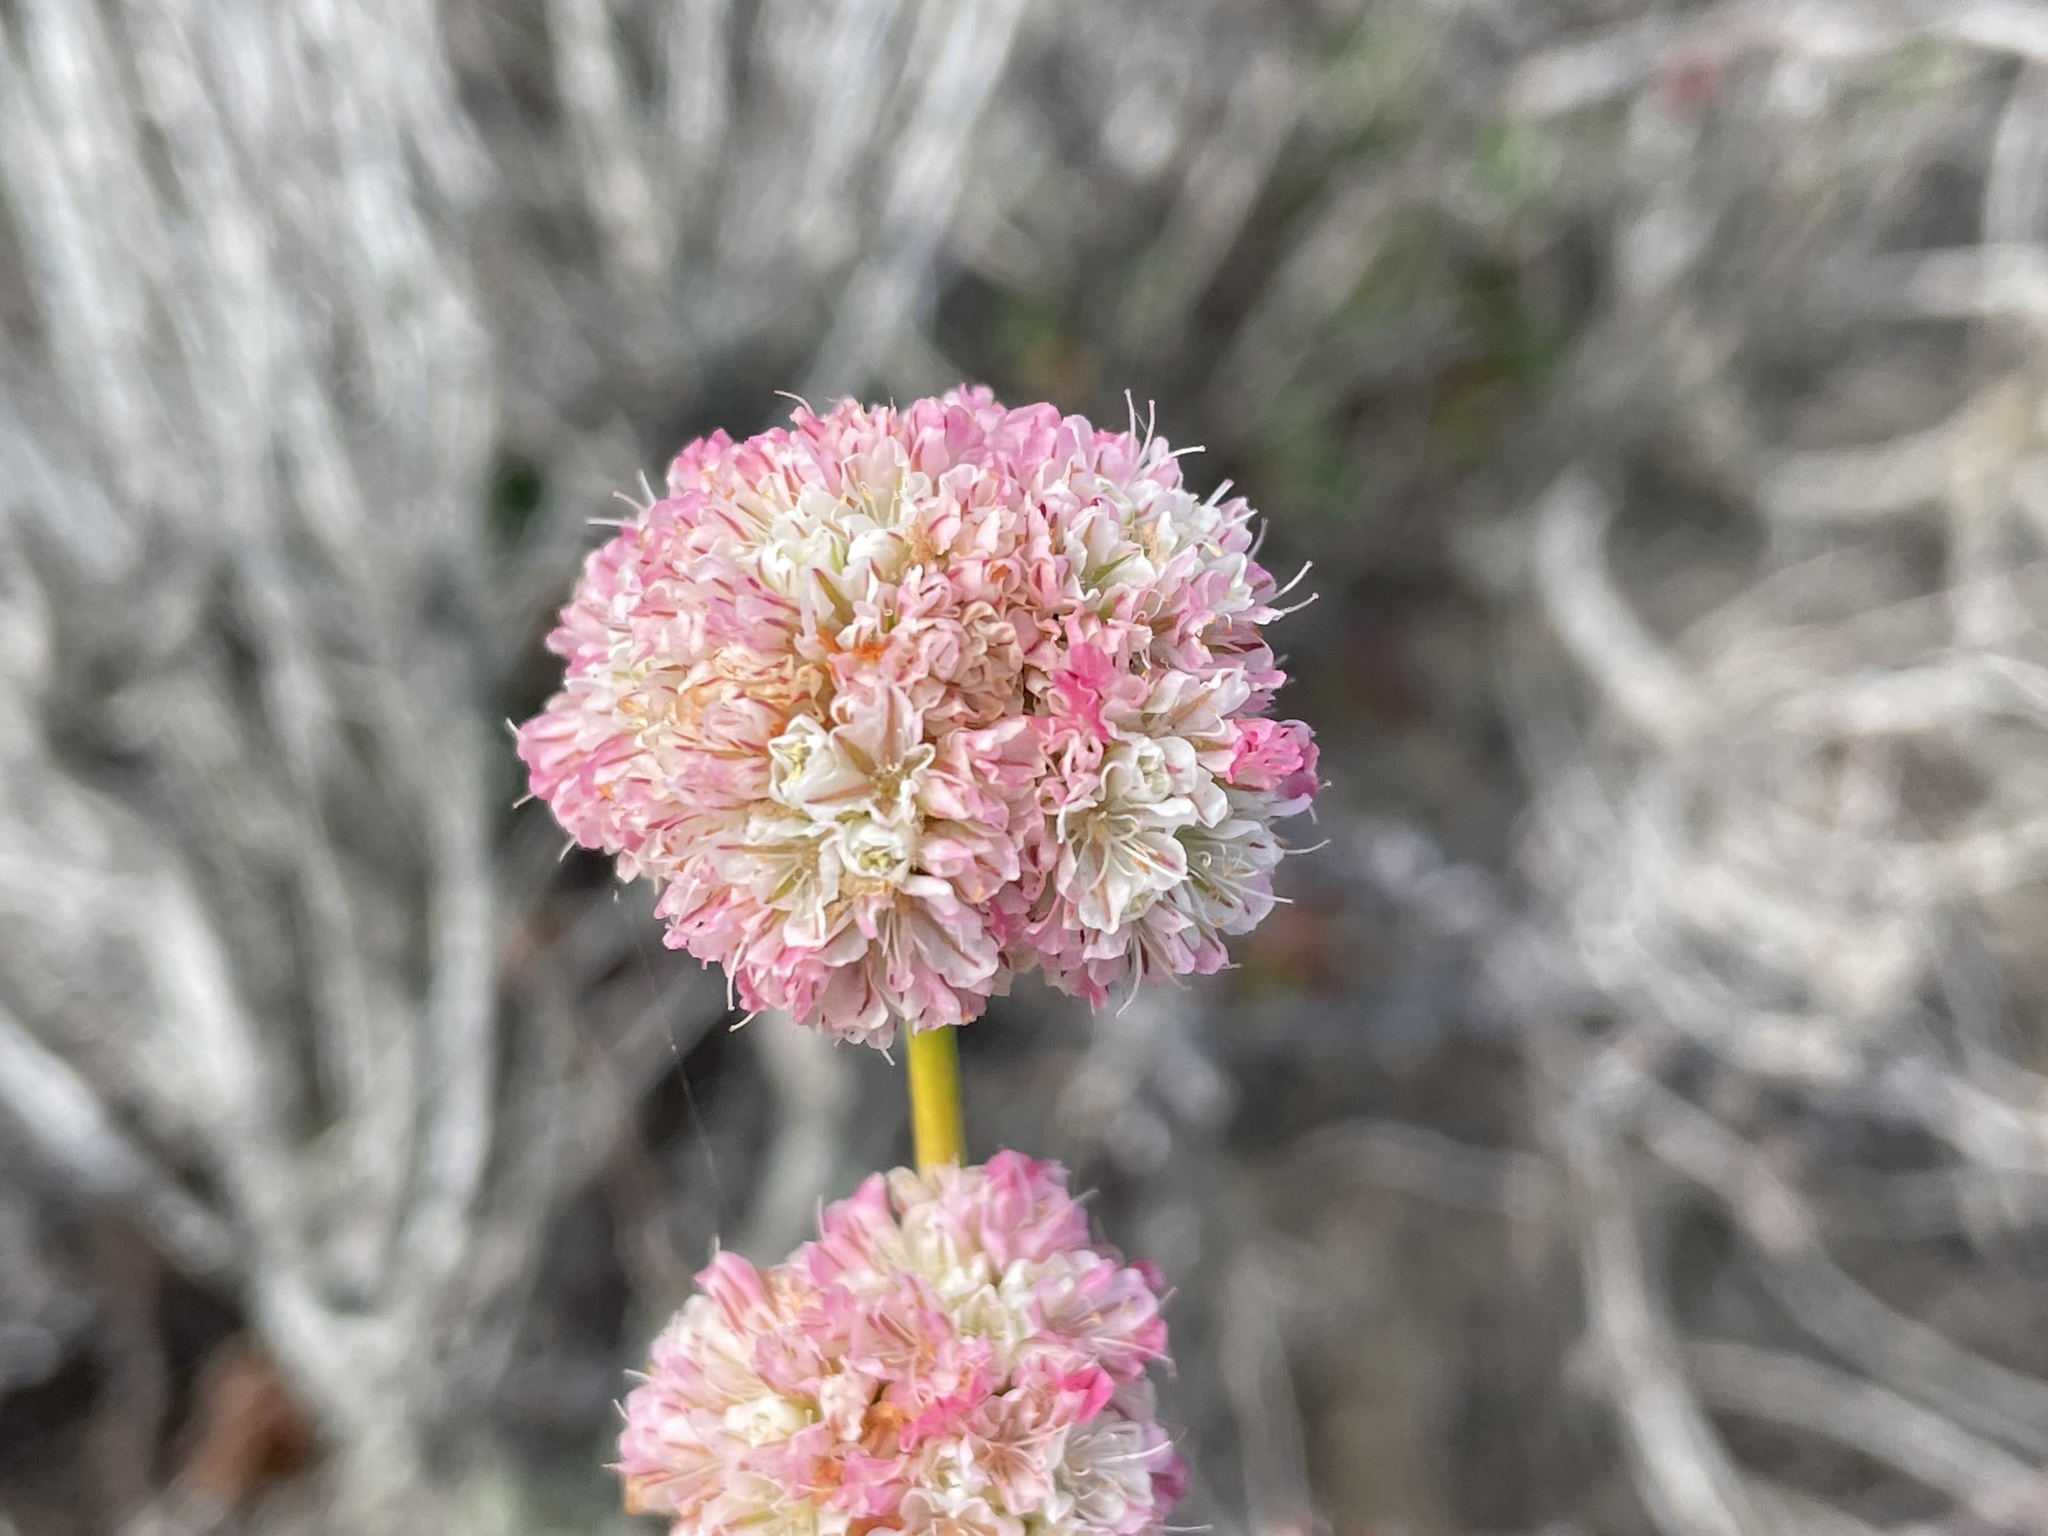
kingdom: Plantae
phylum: Tracheophyta
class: Magnoliopsida
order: Caryophyllales
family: Polygonaceae
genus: Eriogonum
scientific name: Eriogonum parvifolium
